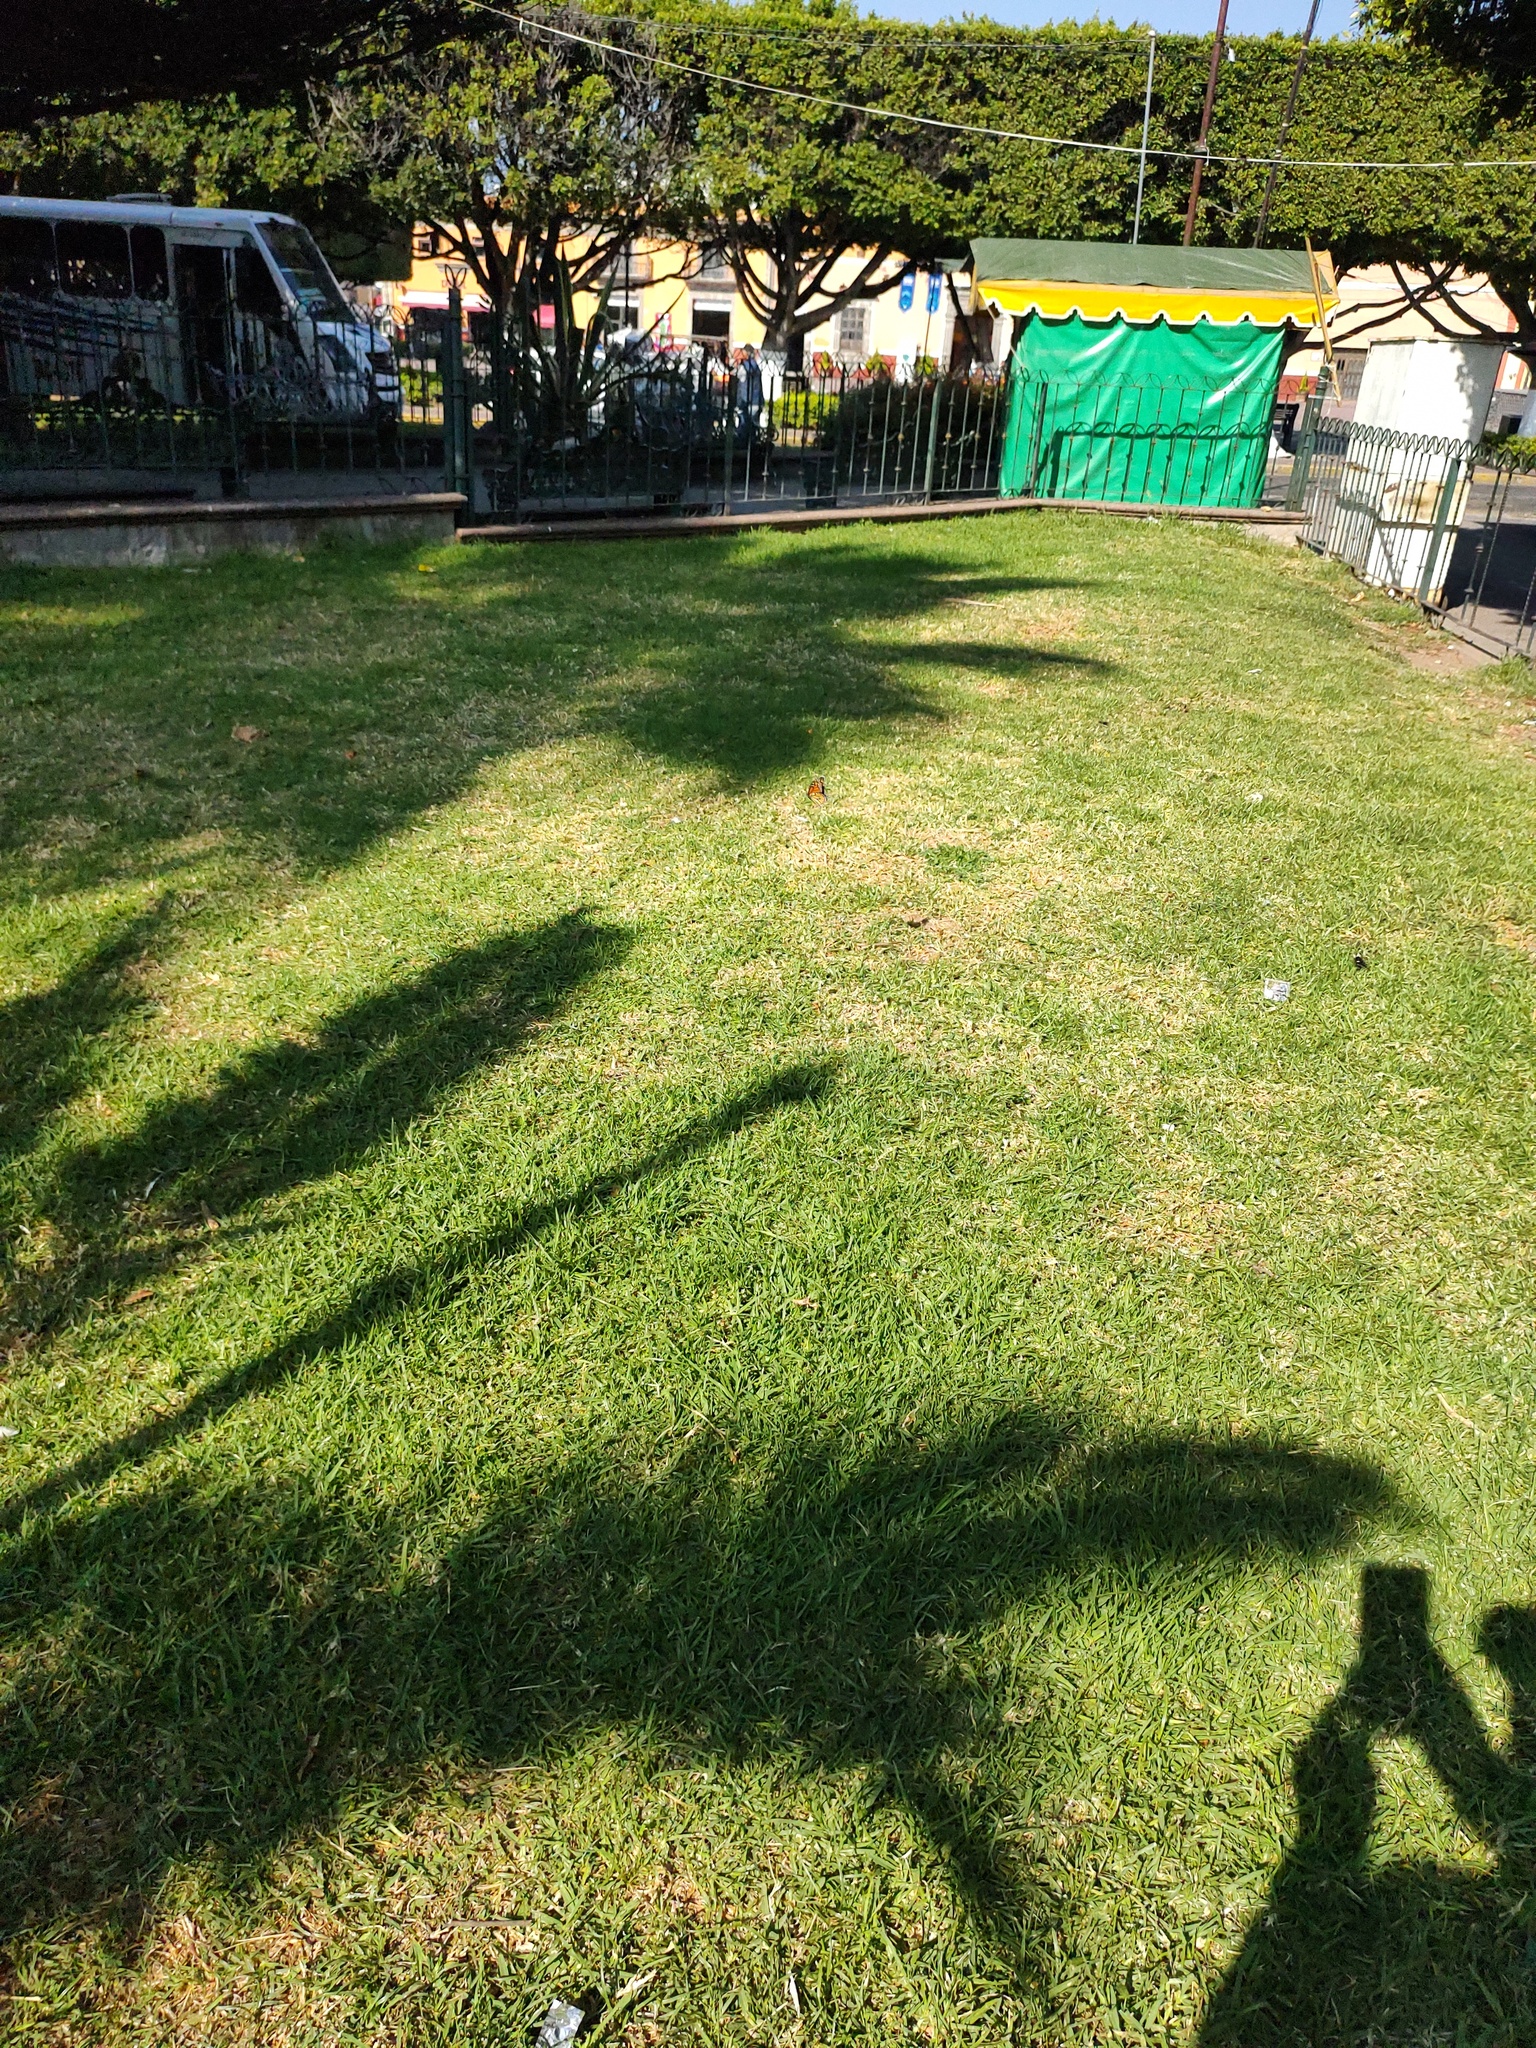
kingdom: Animalia
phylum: Arthropoda
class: Insecta
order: Lepidoptera
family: Nymphalidae
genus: Danaus
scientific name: Danaus plexippus
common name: Monarch
